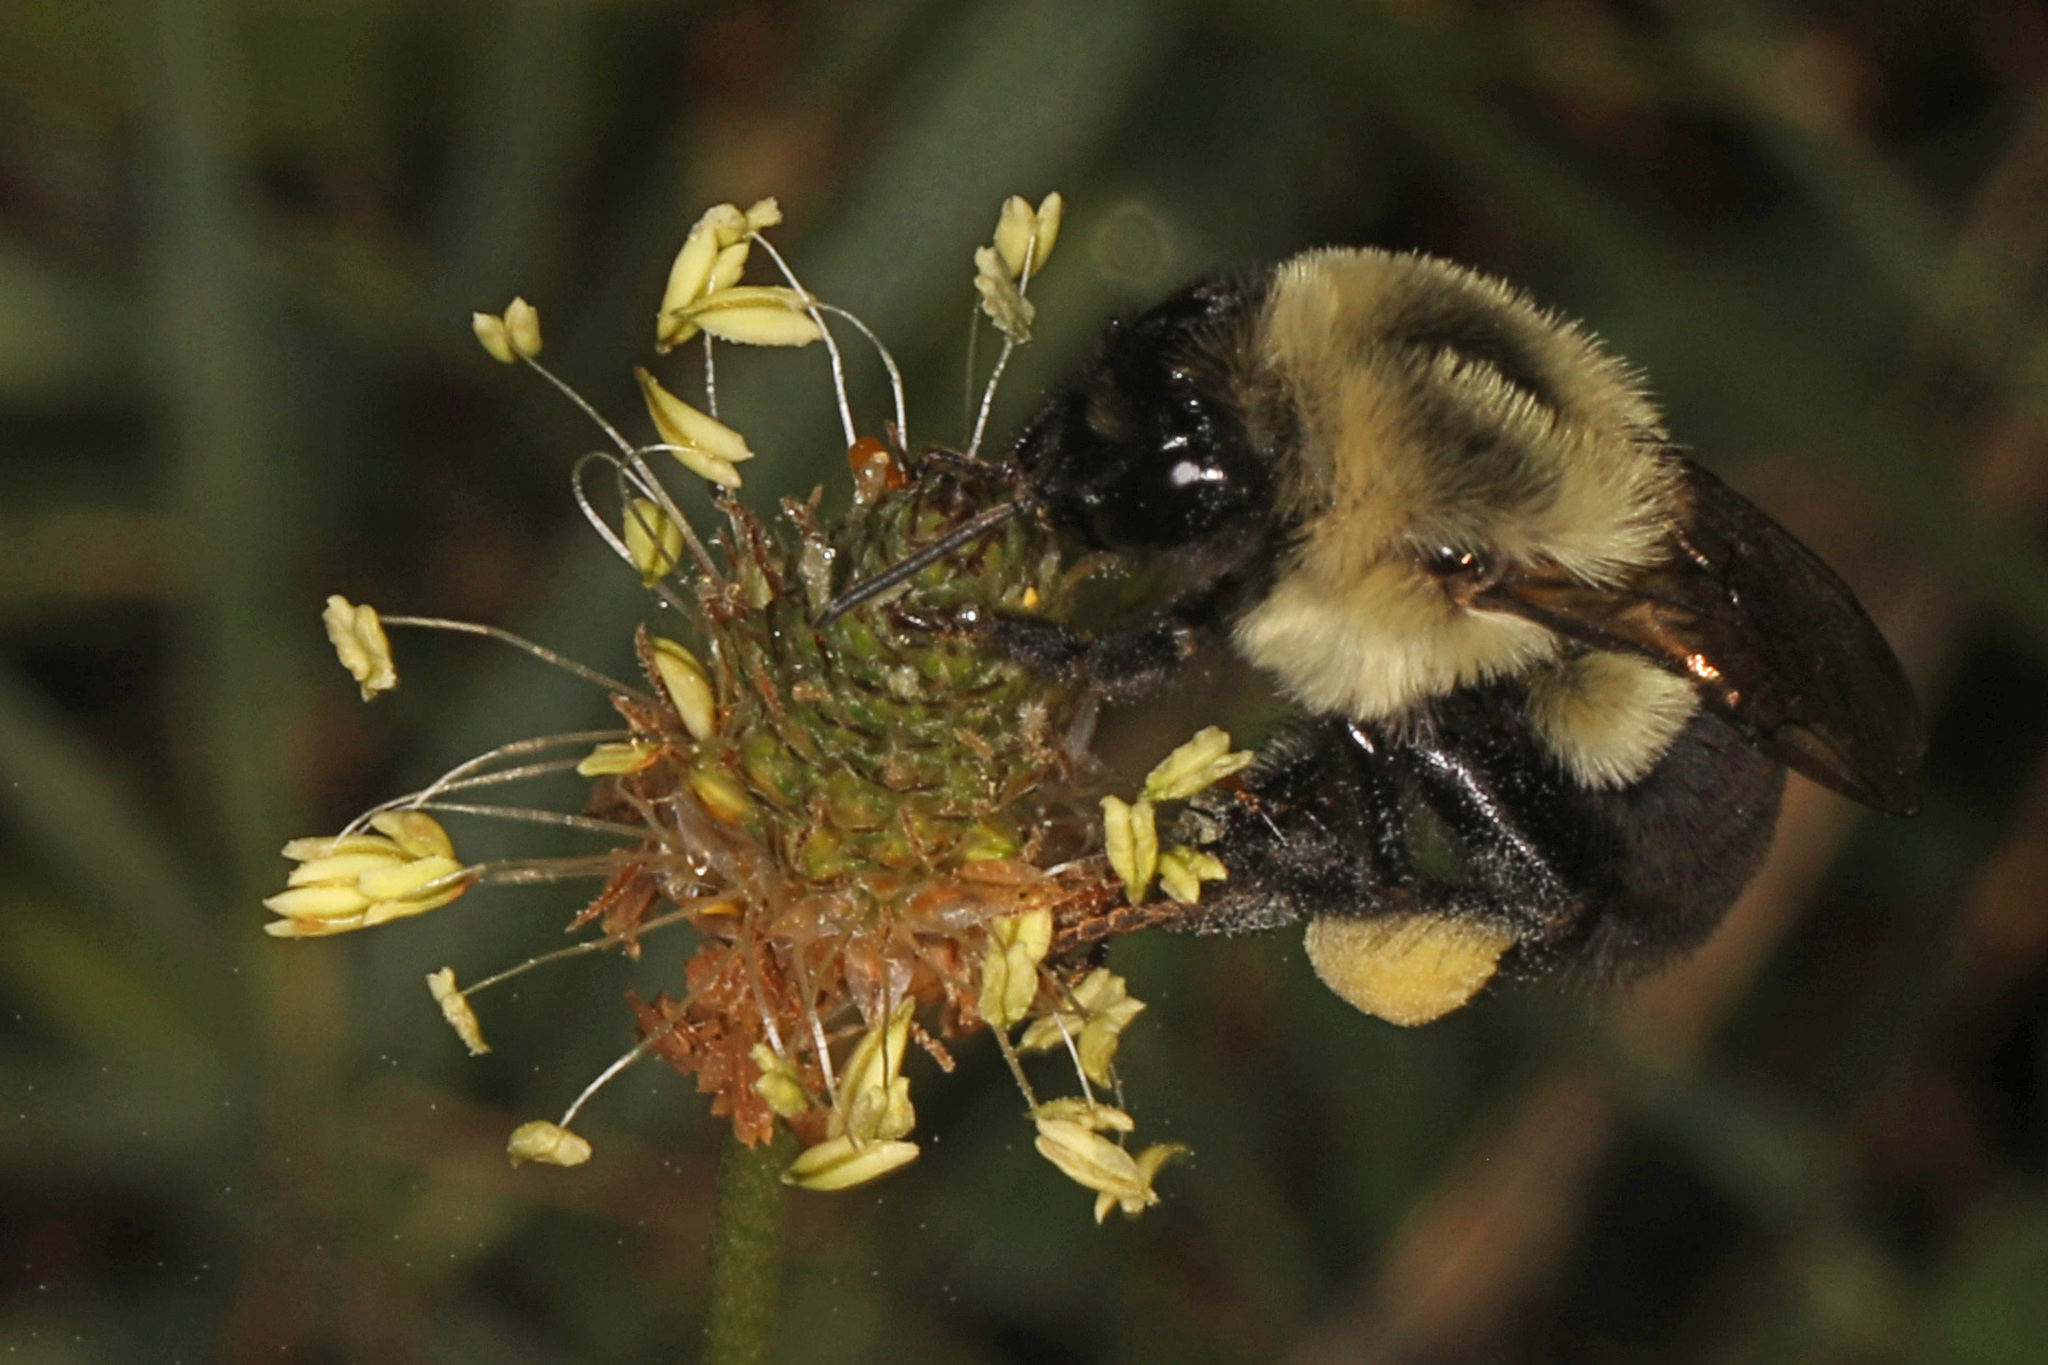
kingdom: Animalia
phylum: Arthropoda
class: Insecta
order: Hymenoptera
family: Apidae
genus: Bombus
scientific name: Bombus impatiens
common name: Common eastern bumble bee
